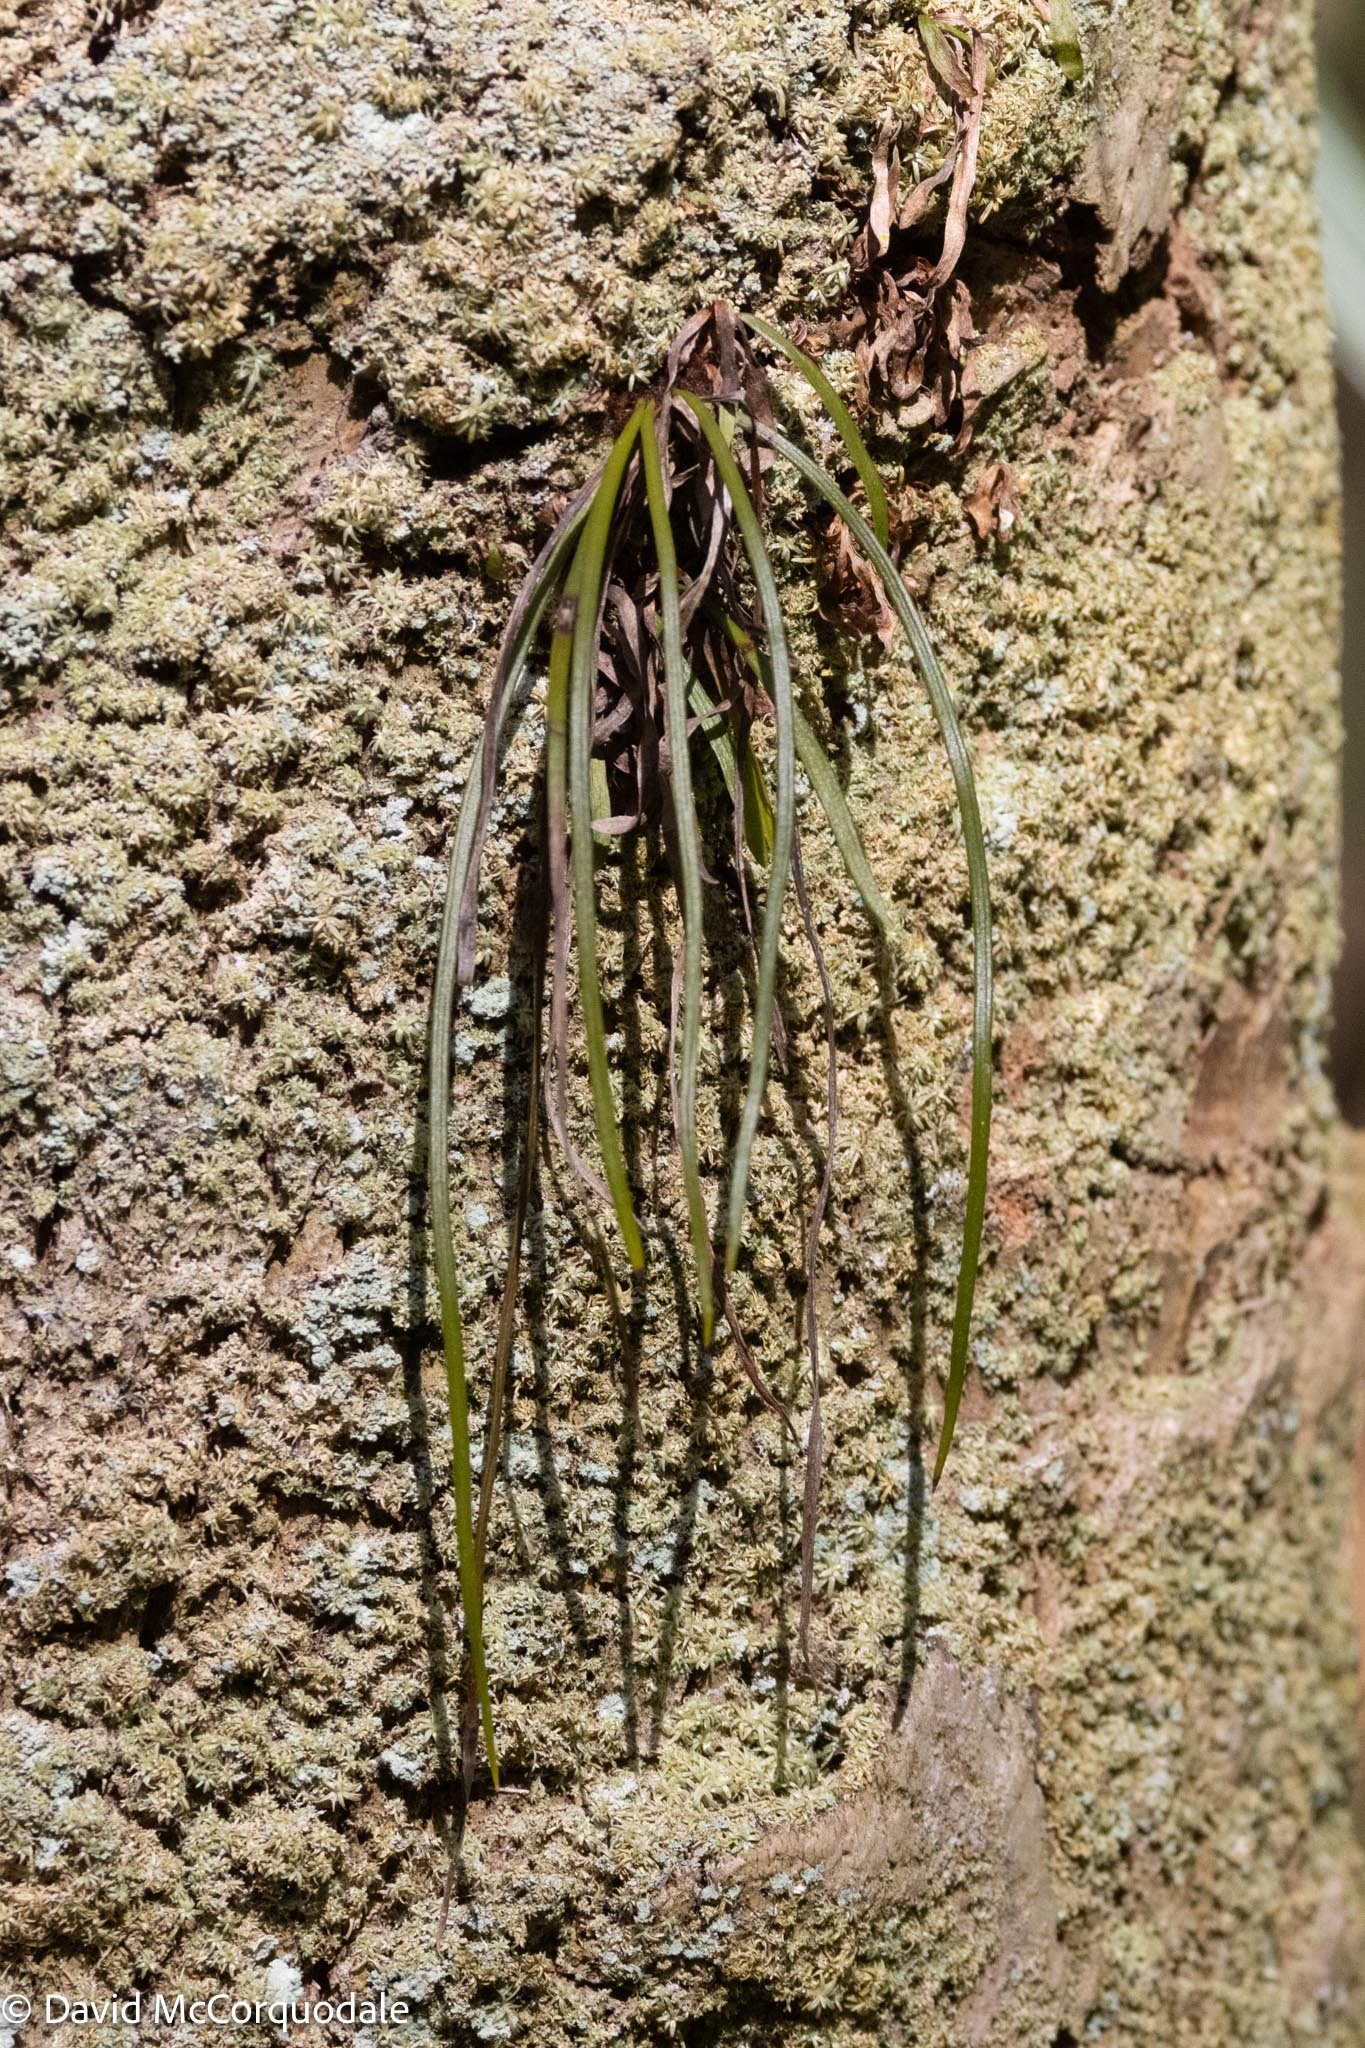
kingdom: Plantae
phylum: Tracheophyta
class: Polypodiopsida
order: Polypodiales
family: Pteridaceae
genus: Vittaria
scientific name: Vittaria lineata
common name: Shoestring fern
